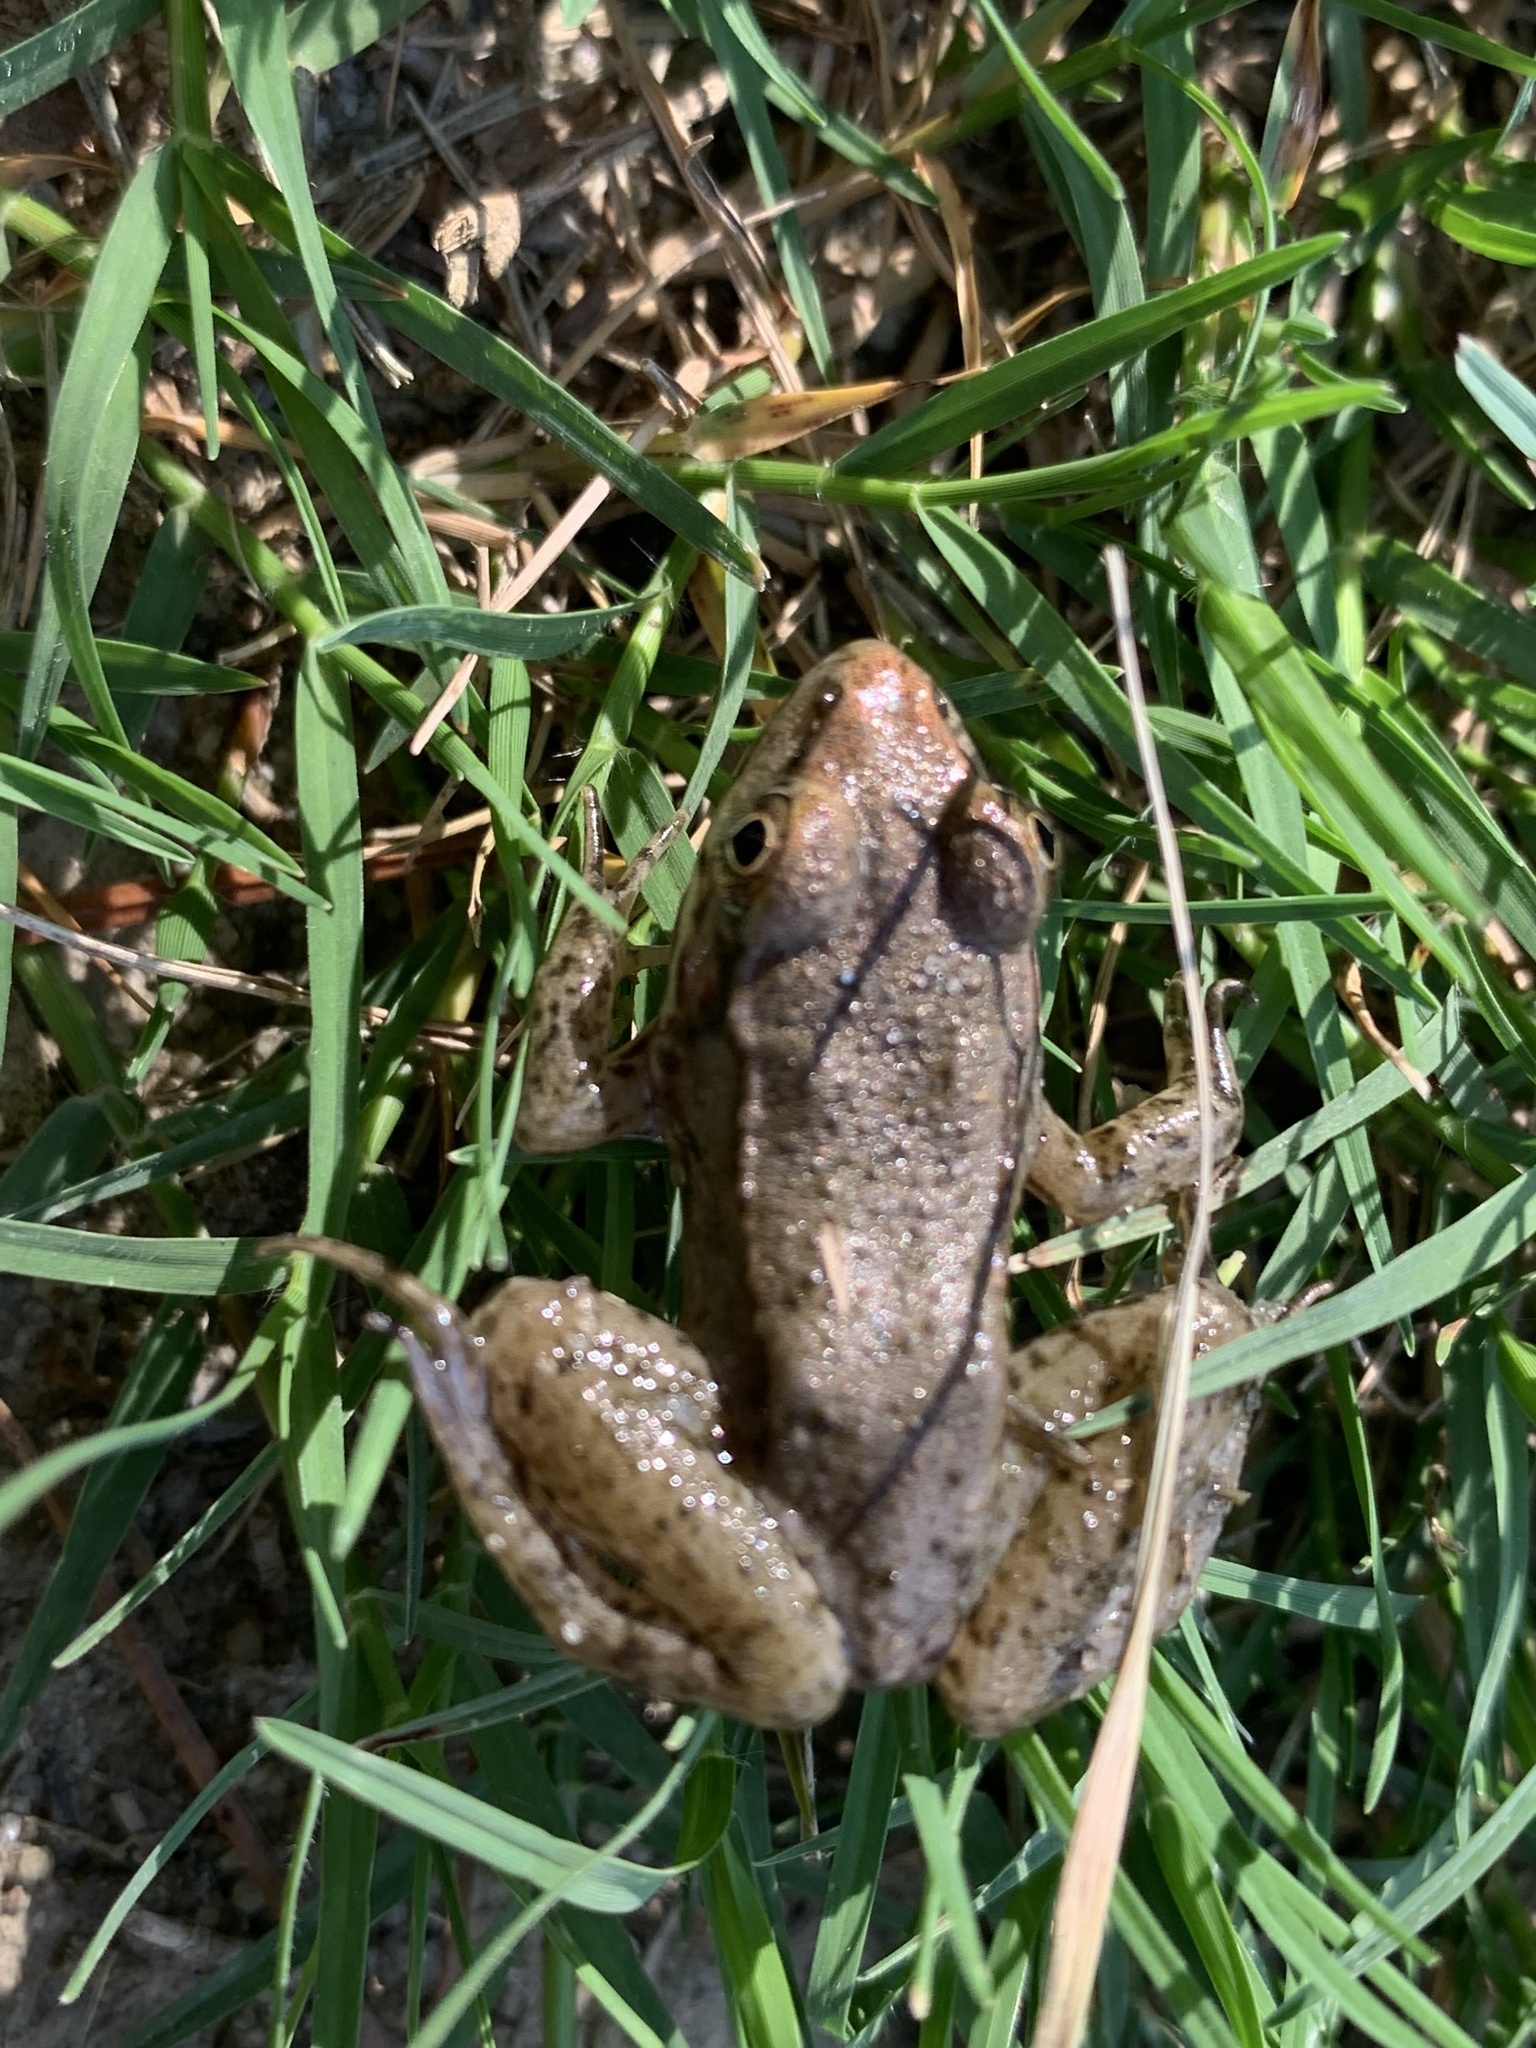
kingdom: Animalia
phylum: Chordata
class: Amphibia
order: Anura
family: Ranidae
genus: Lithobates
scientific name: Lithobates clamitans
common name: Green frog
